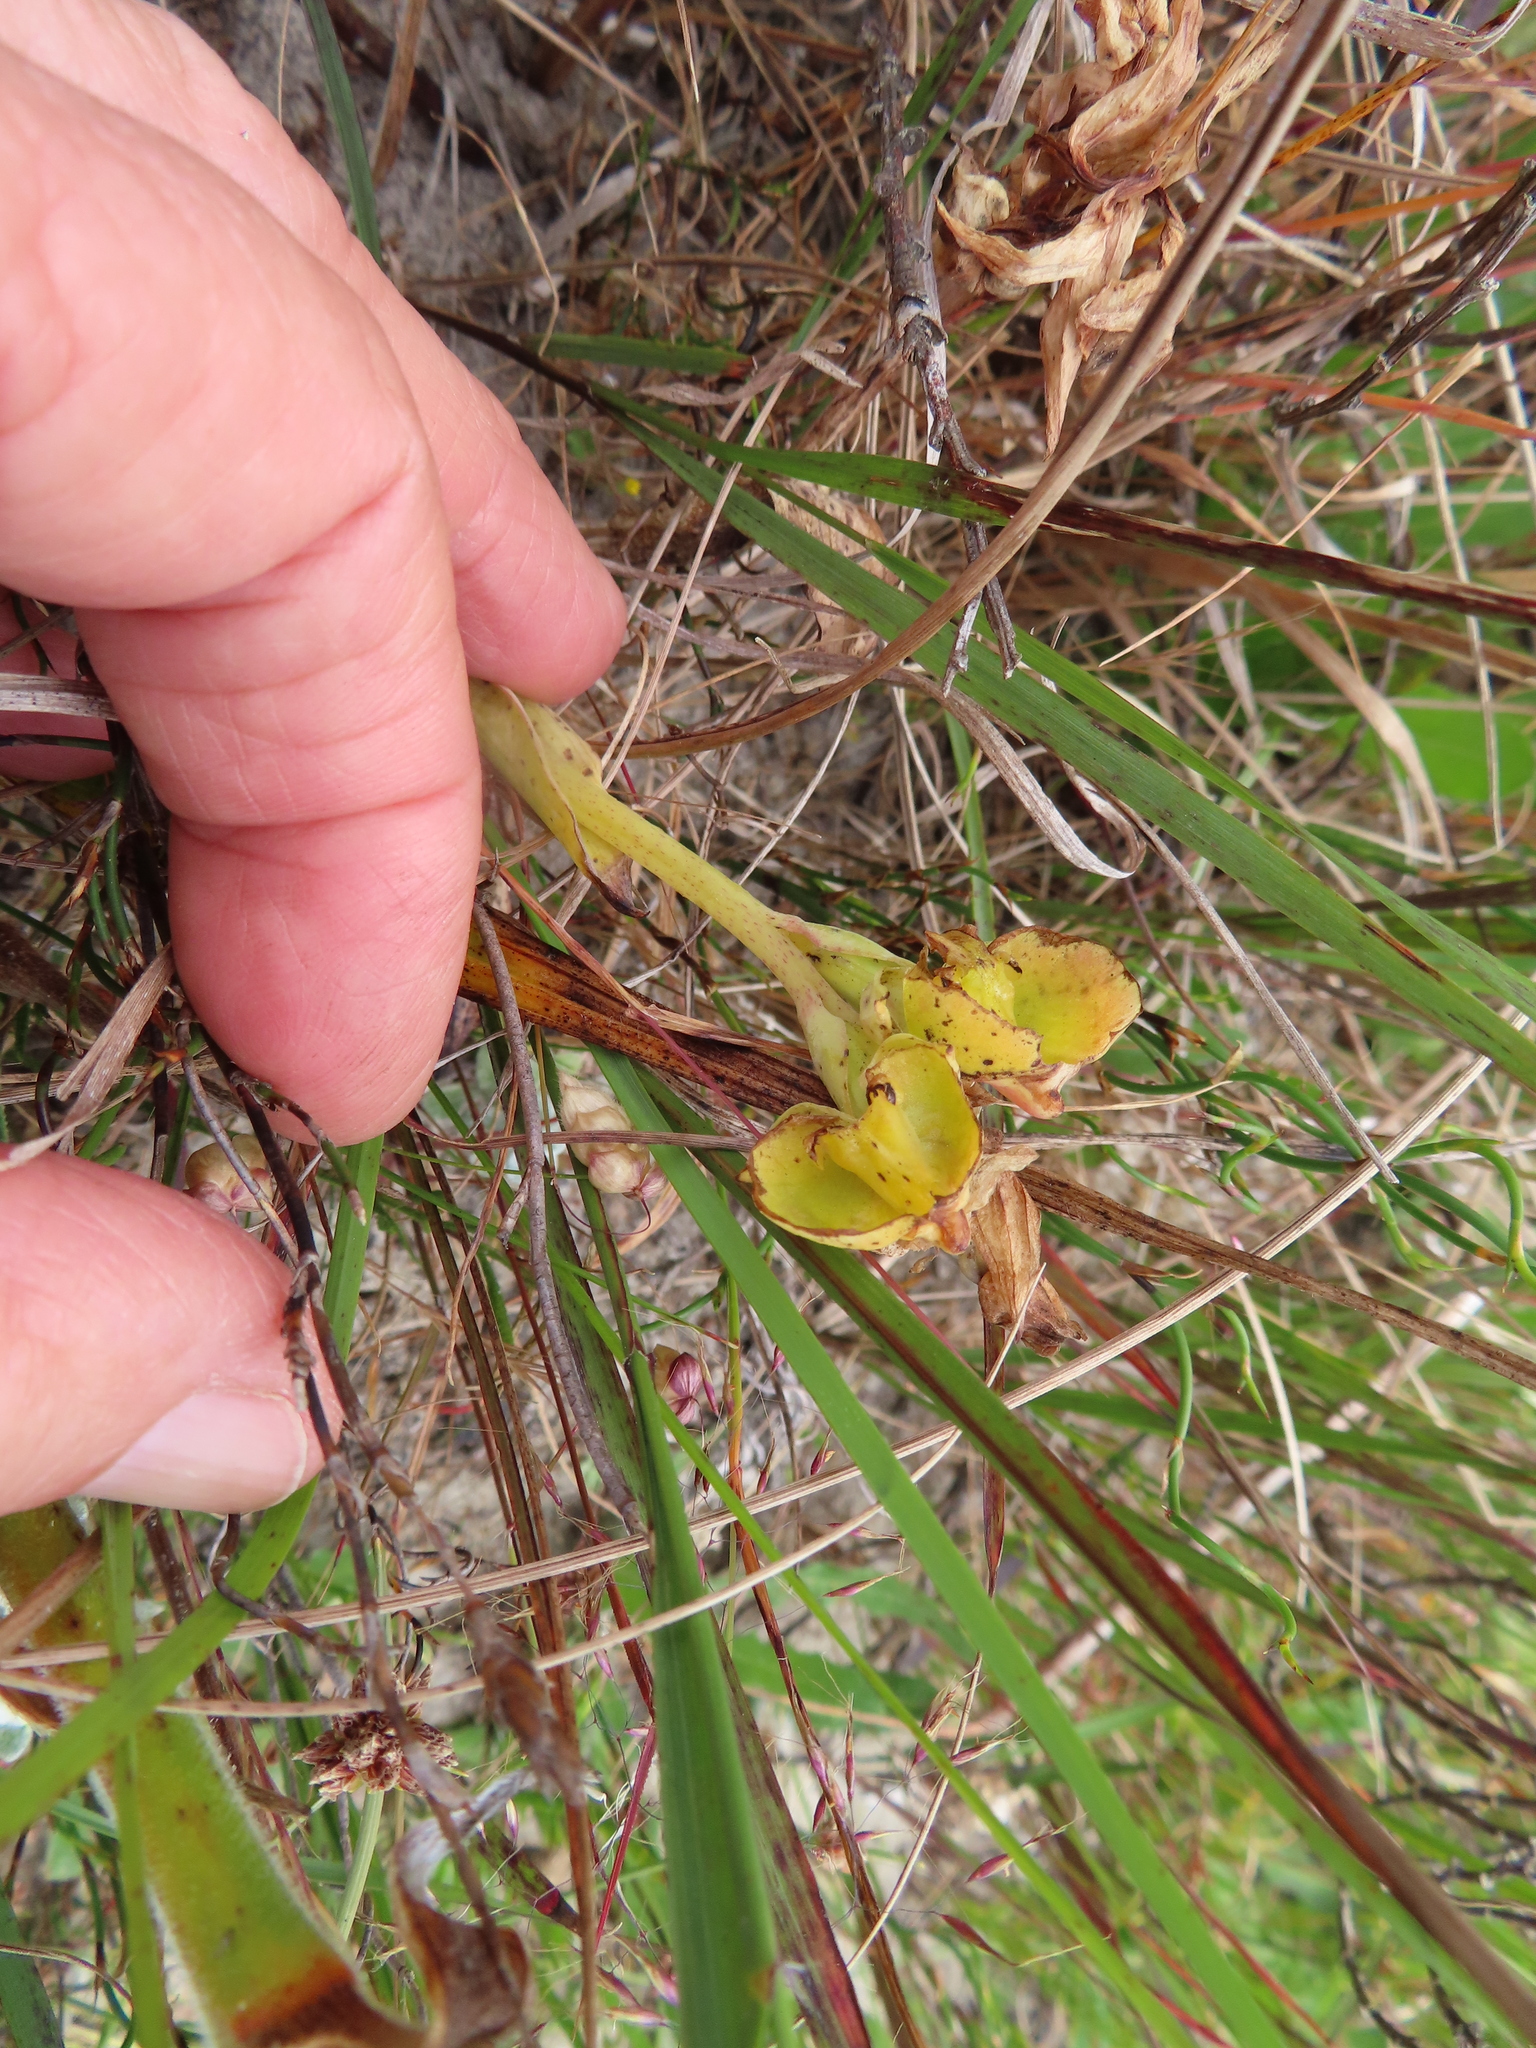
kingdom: Plantae
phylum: Tracheophyta
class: Liliopsida
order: Asparagales
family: Orchidaceae
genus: Pterygodium
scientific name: Pterygodium catholicum
